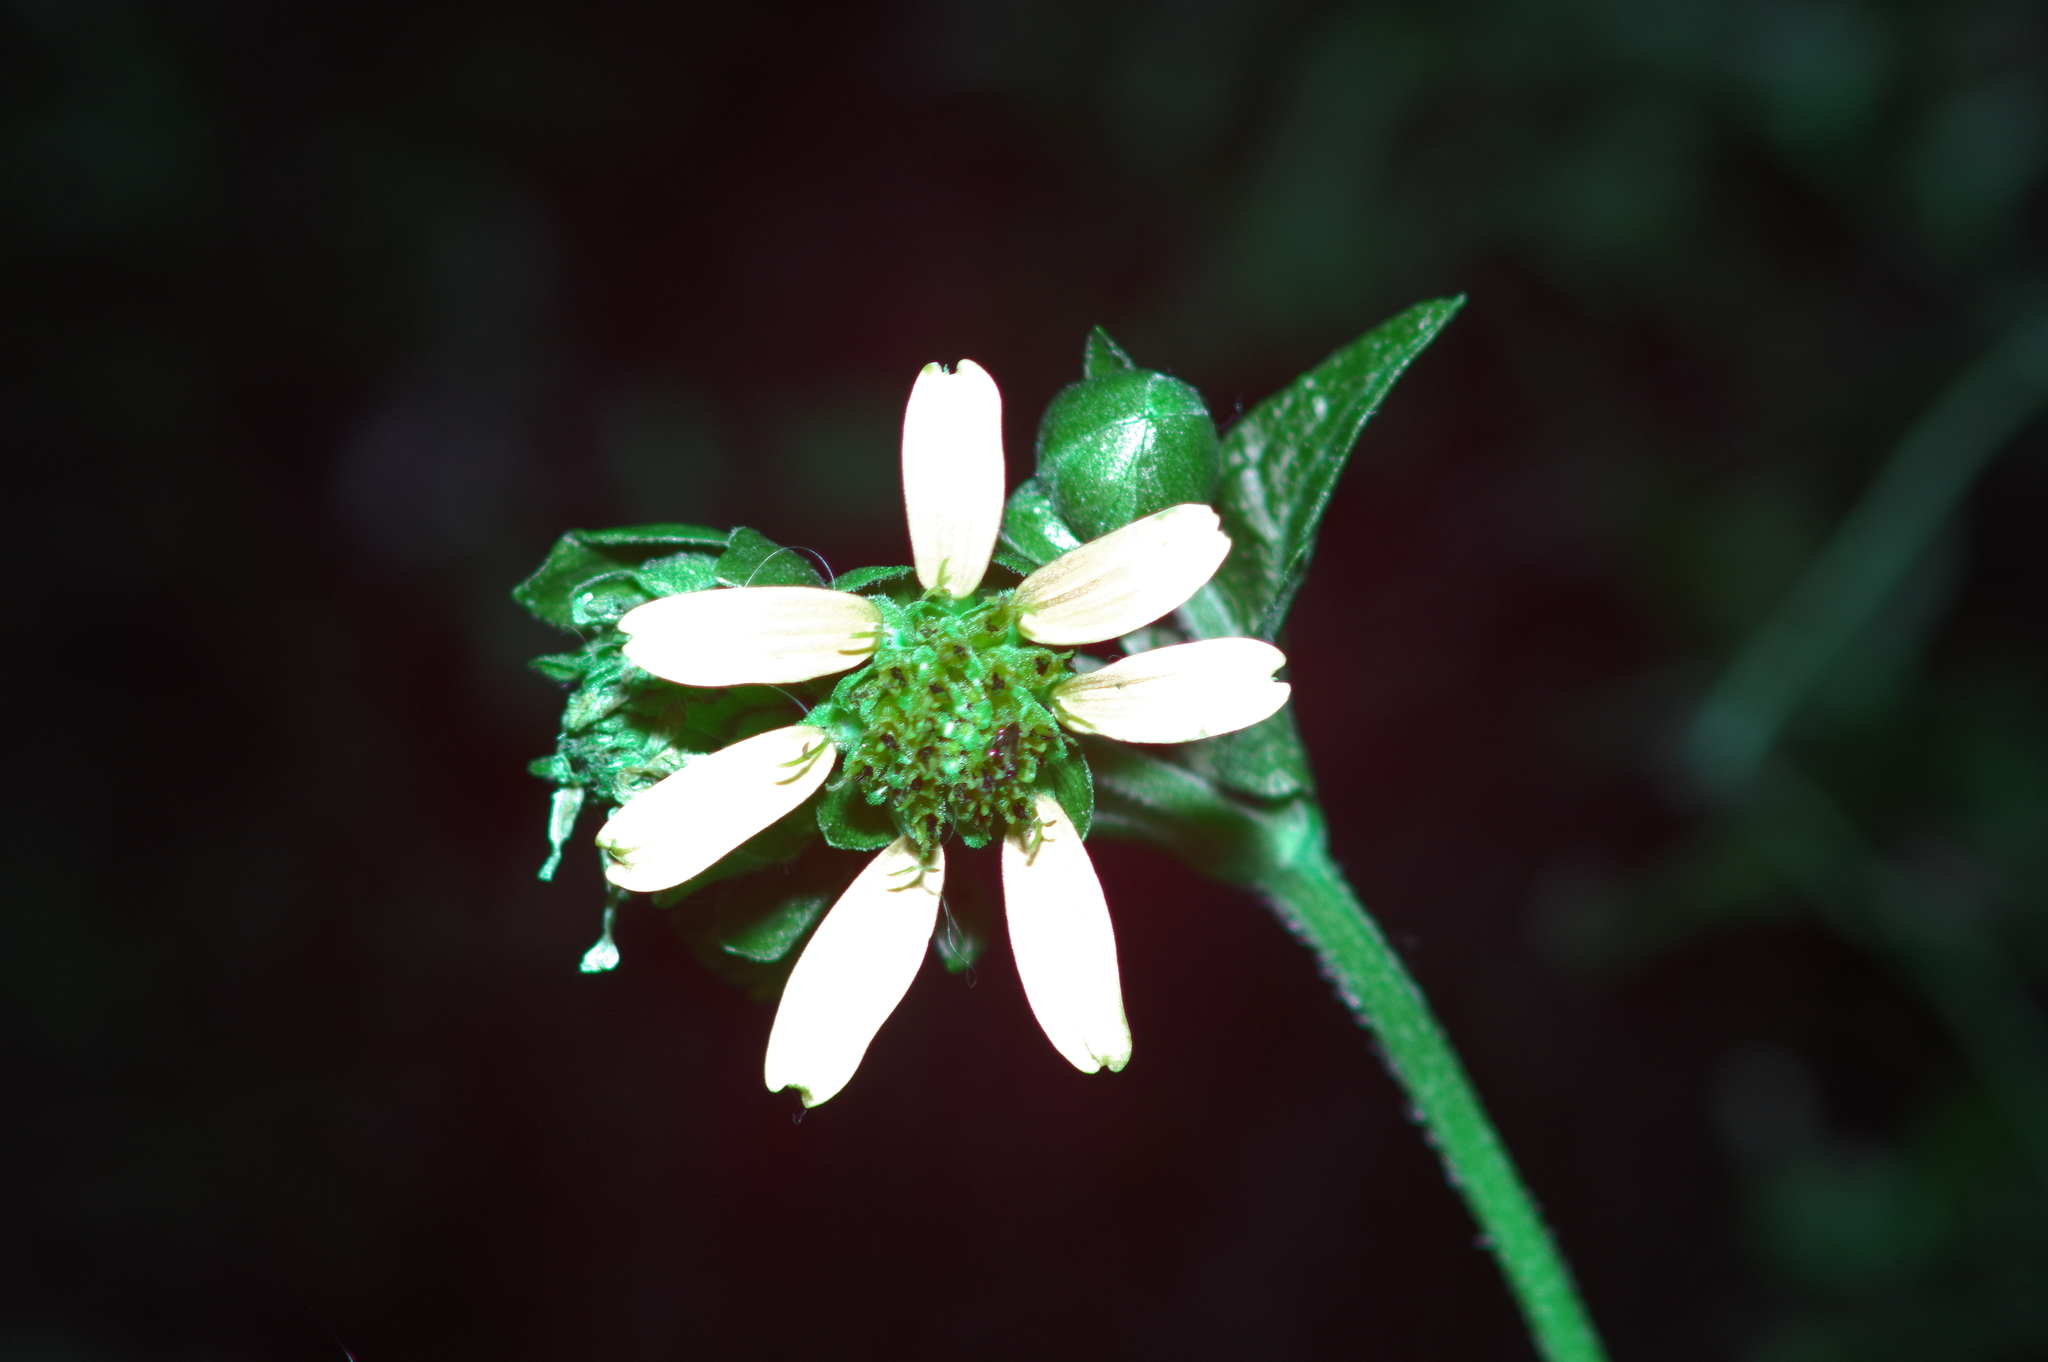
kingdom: Plantae
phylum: Tracheophyta
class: Magnoliopsida
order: Asterales
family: Asteraceae
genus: Smallanthus
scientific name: Smallanthus uvedalia
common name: Bear's-foot
